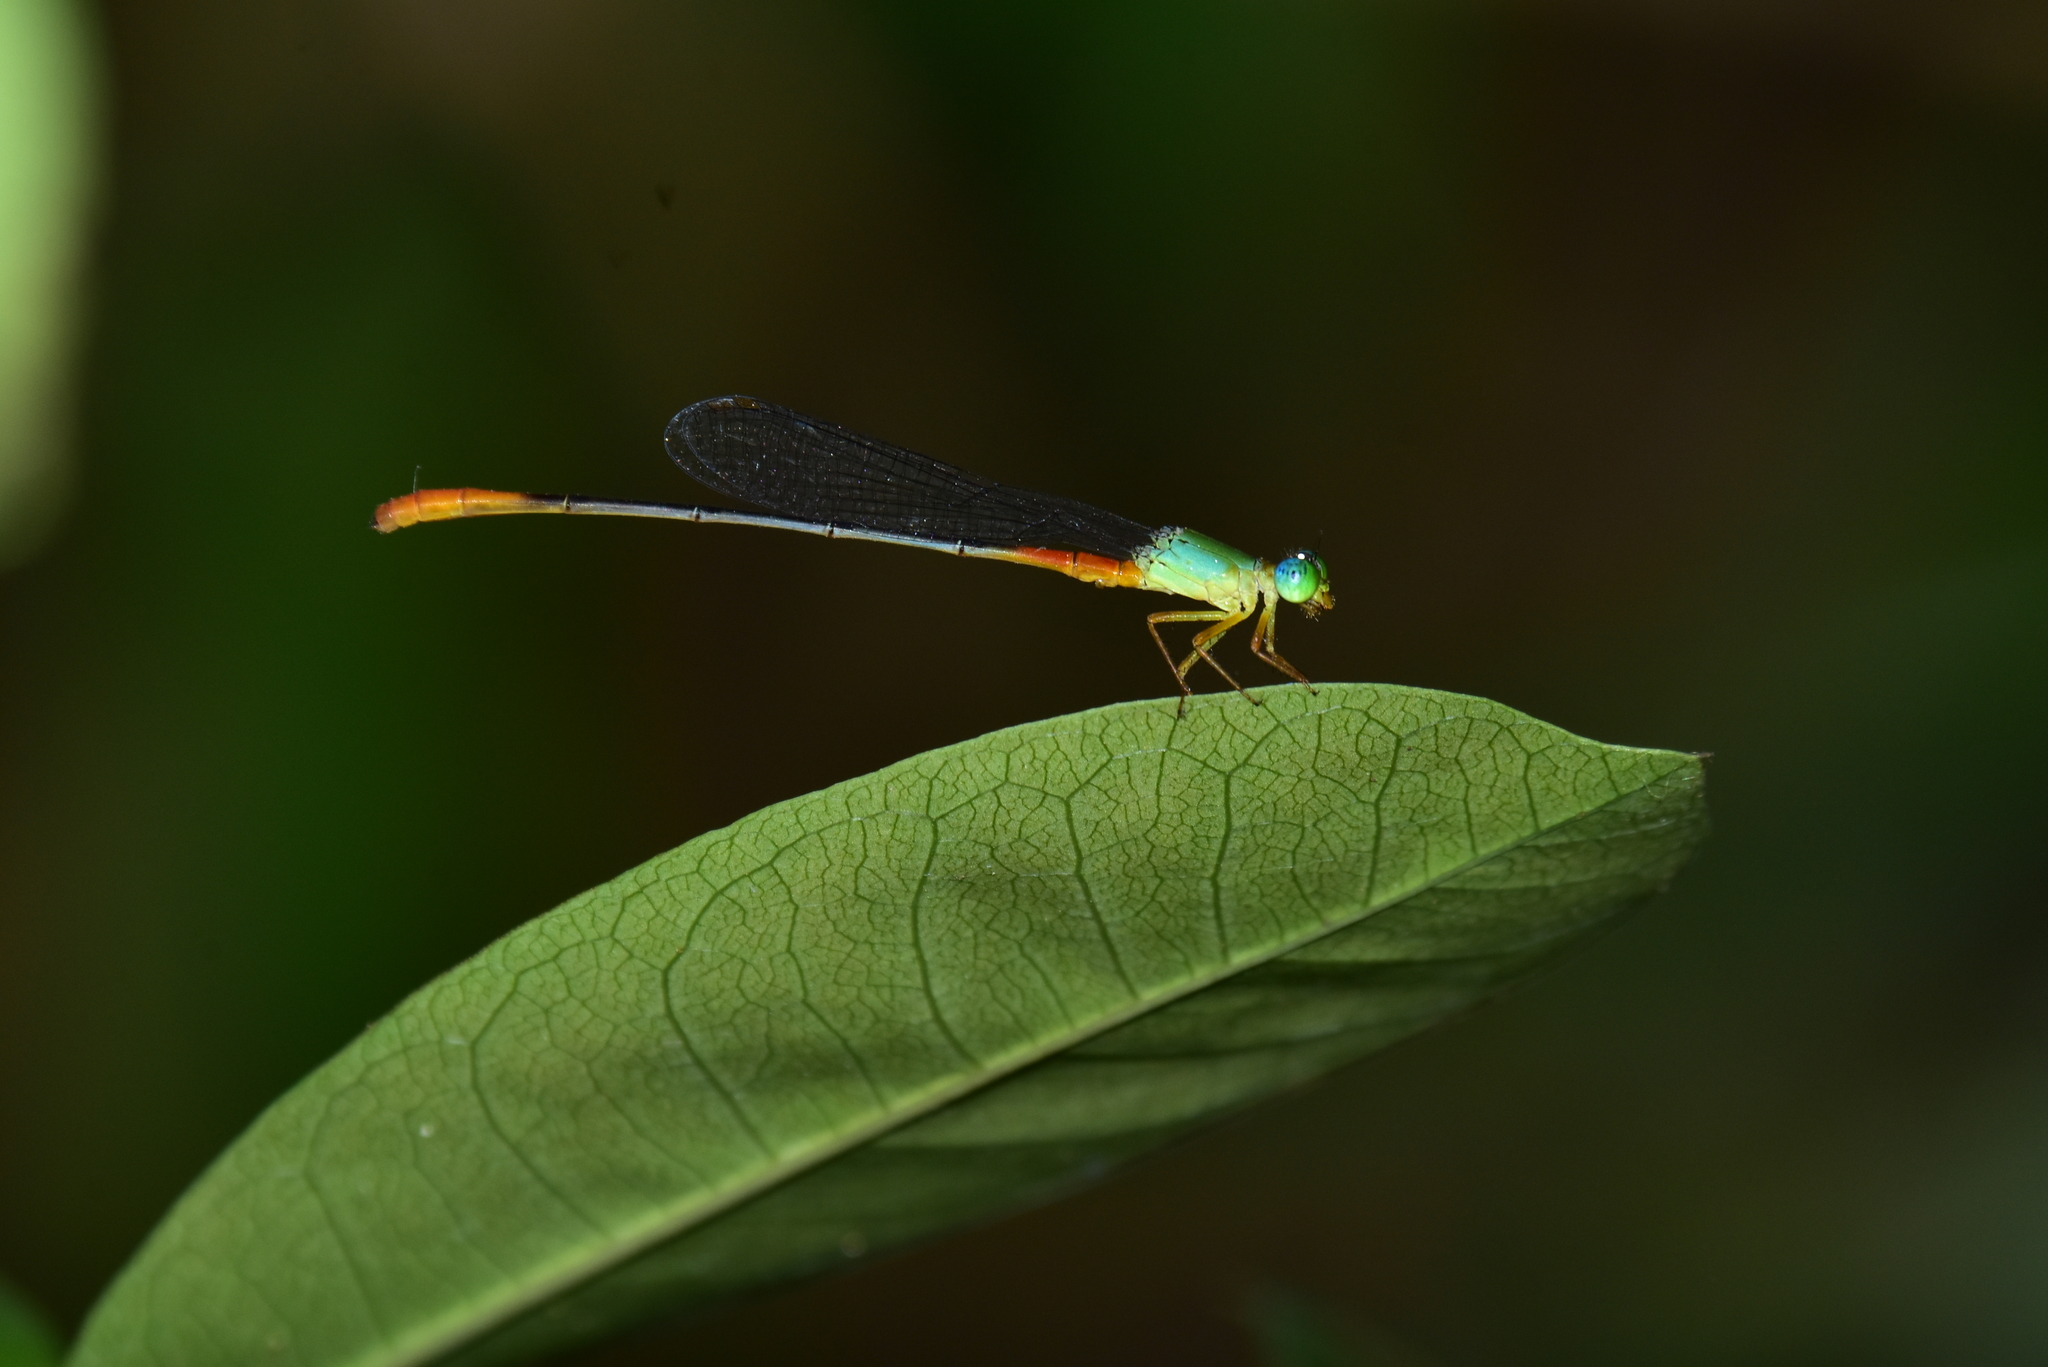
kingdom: Animalia
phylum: Arthropoda
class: Insecta
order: Odonata
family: Coenagrionidae
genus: Ceriagrion
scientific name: Ceriagrion cerinorubellum
